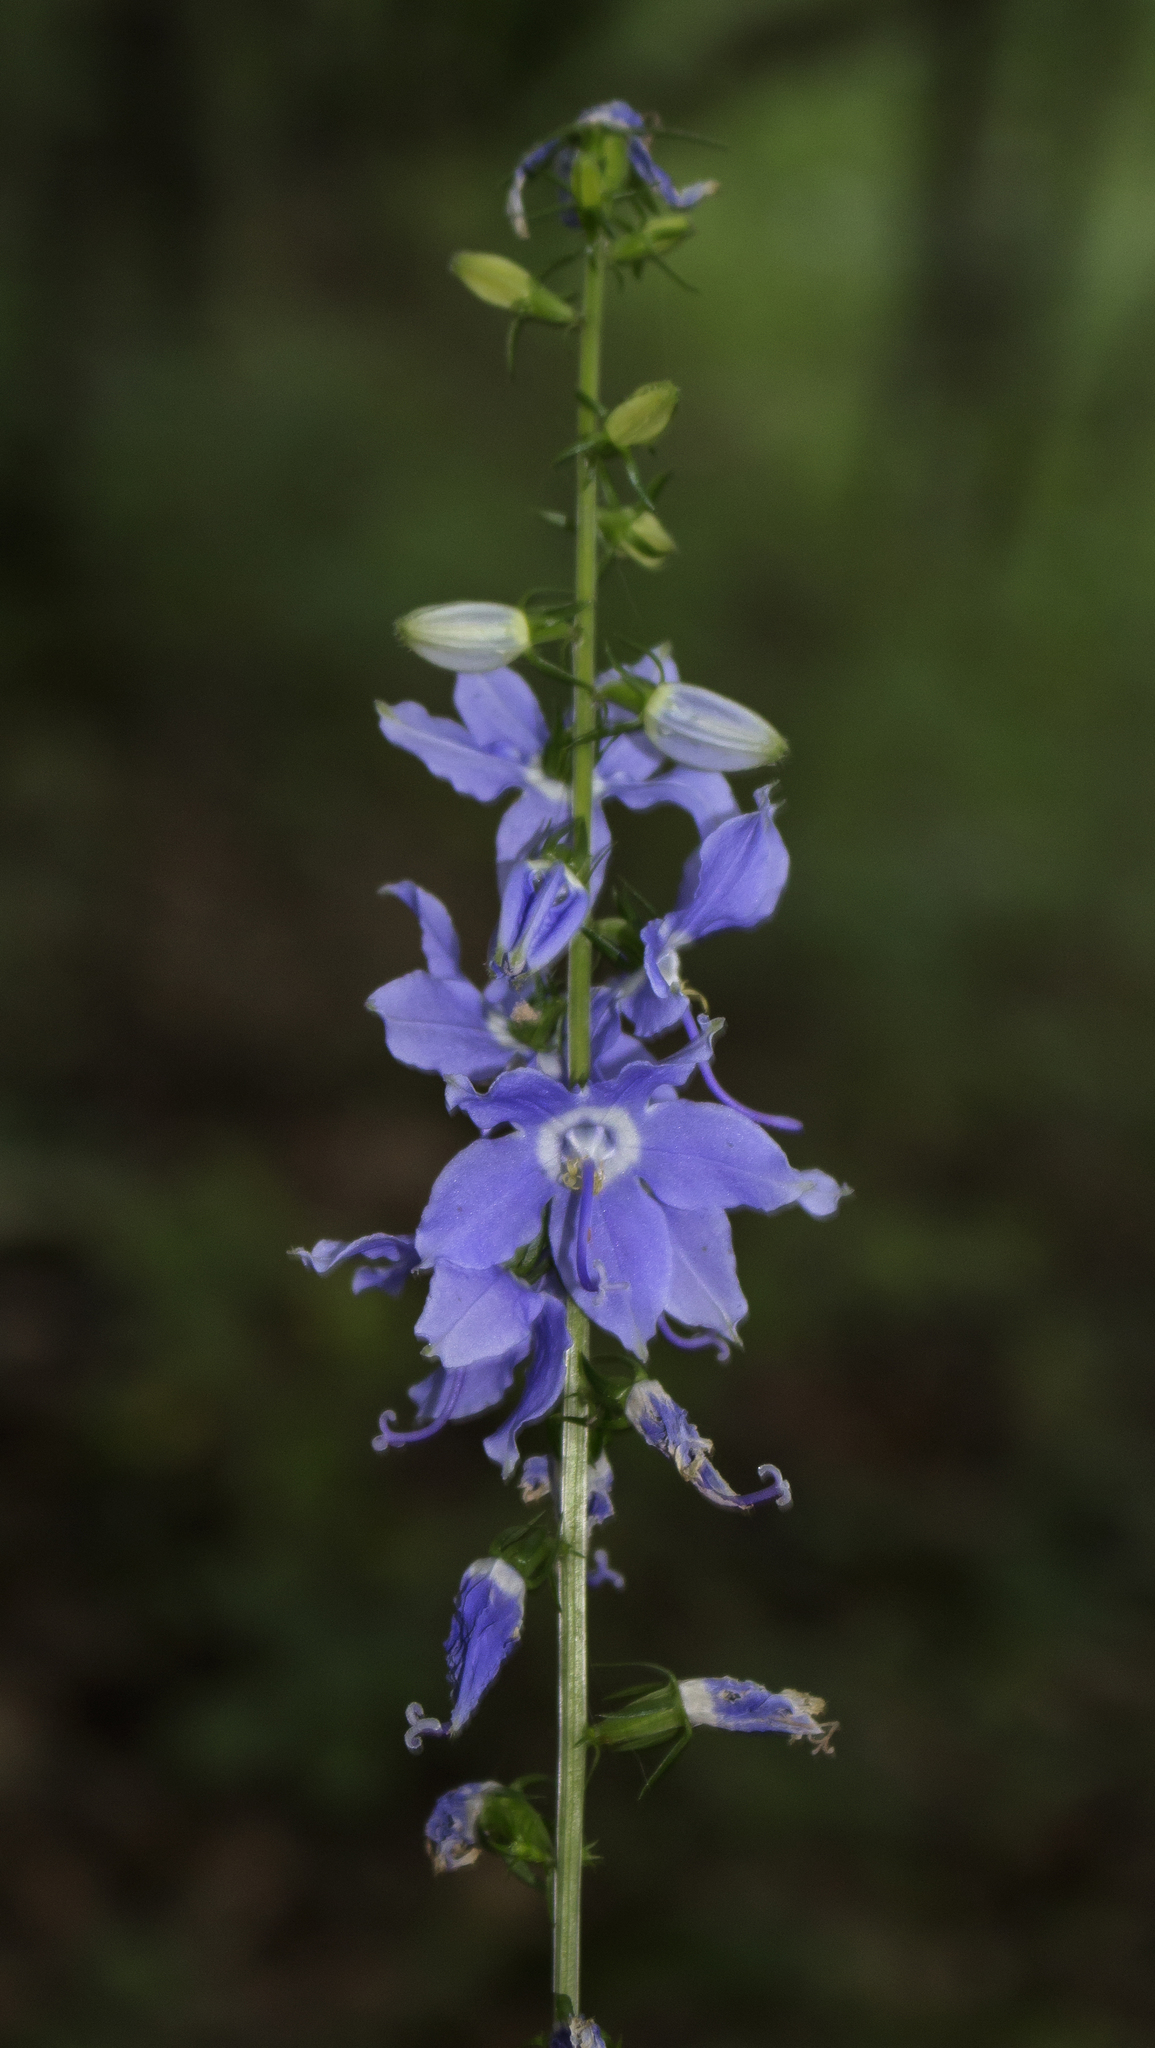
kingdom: Plantae
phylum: Tracheophyta
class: Magnoliopsida
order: Asterales
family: Campanulaceae
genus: Campanulastrum
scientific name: Campanulastrum americanum
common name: American bellflower
